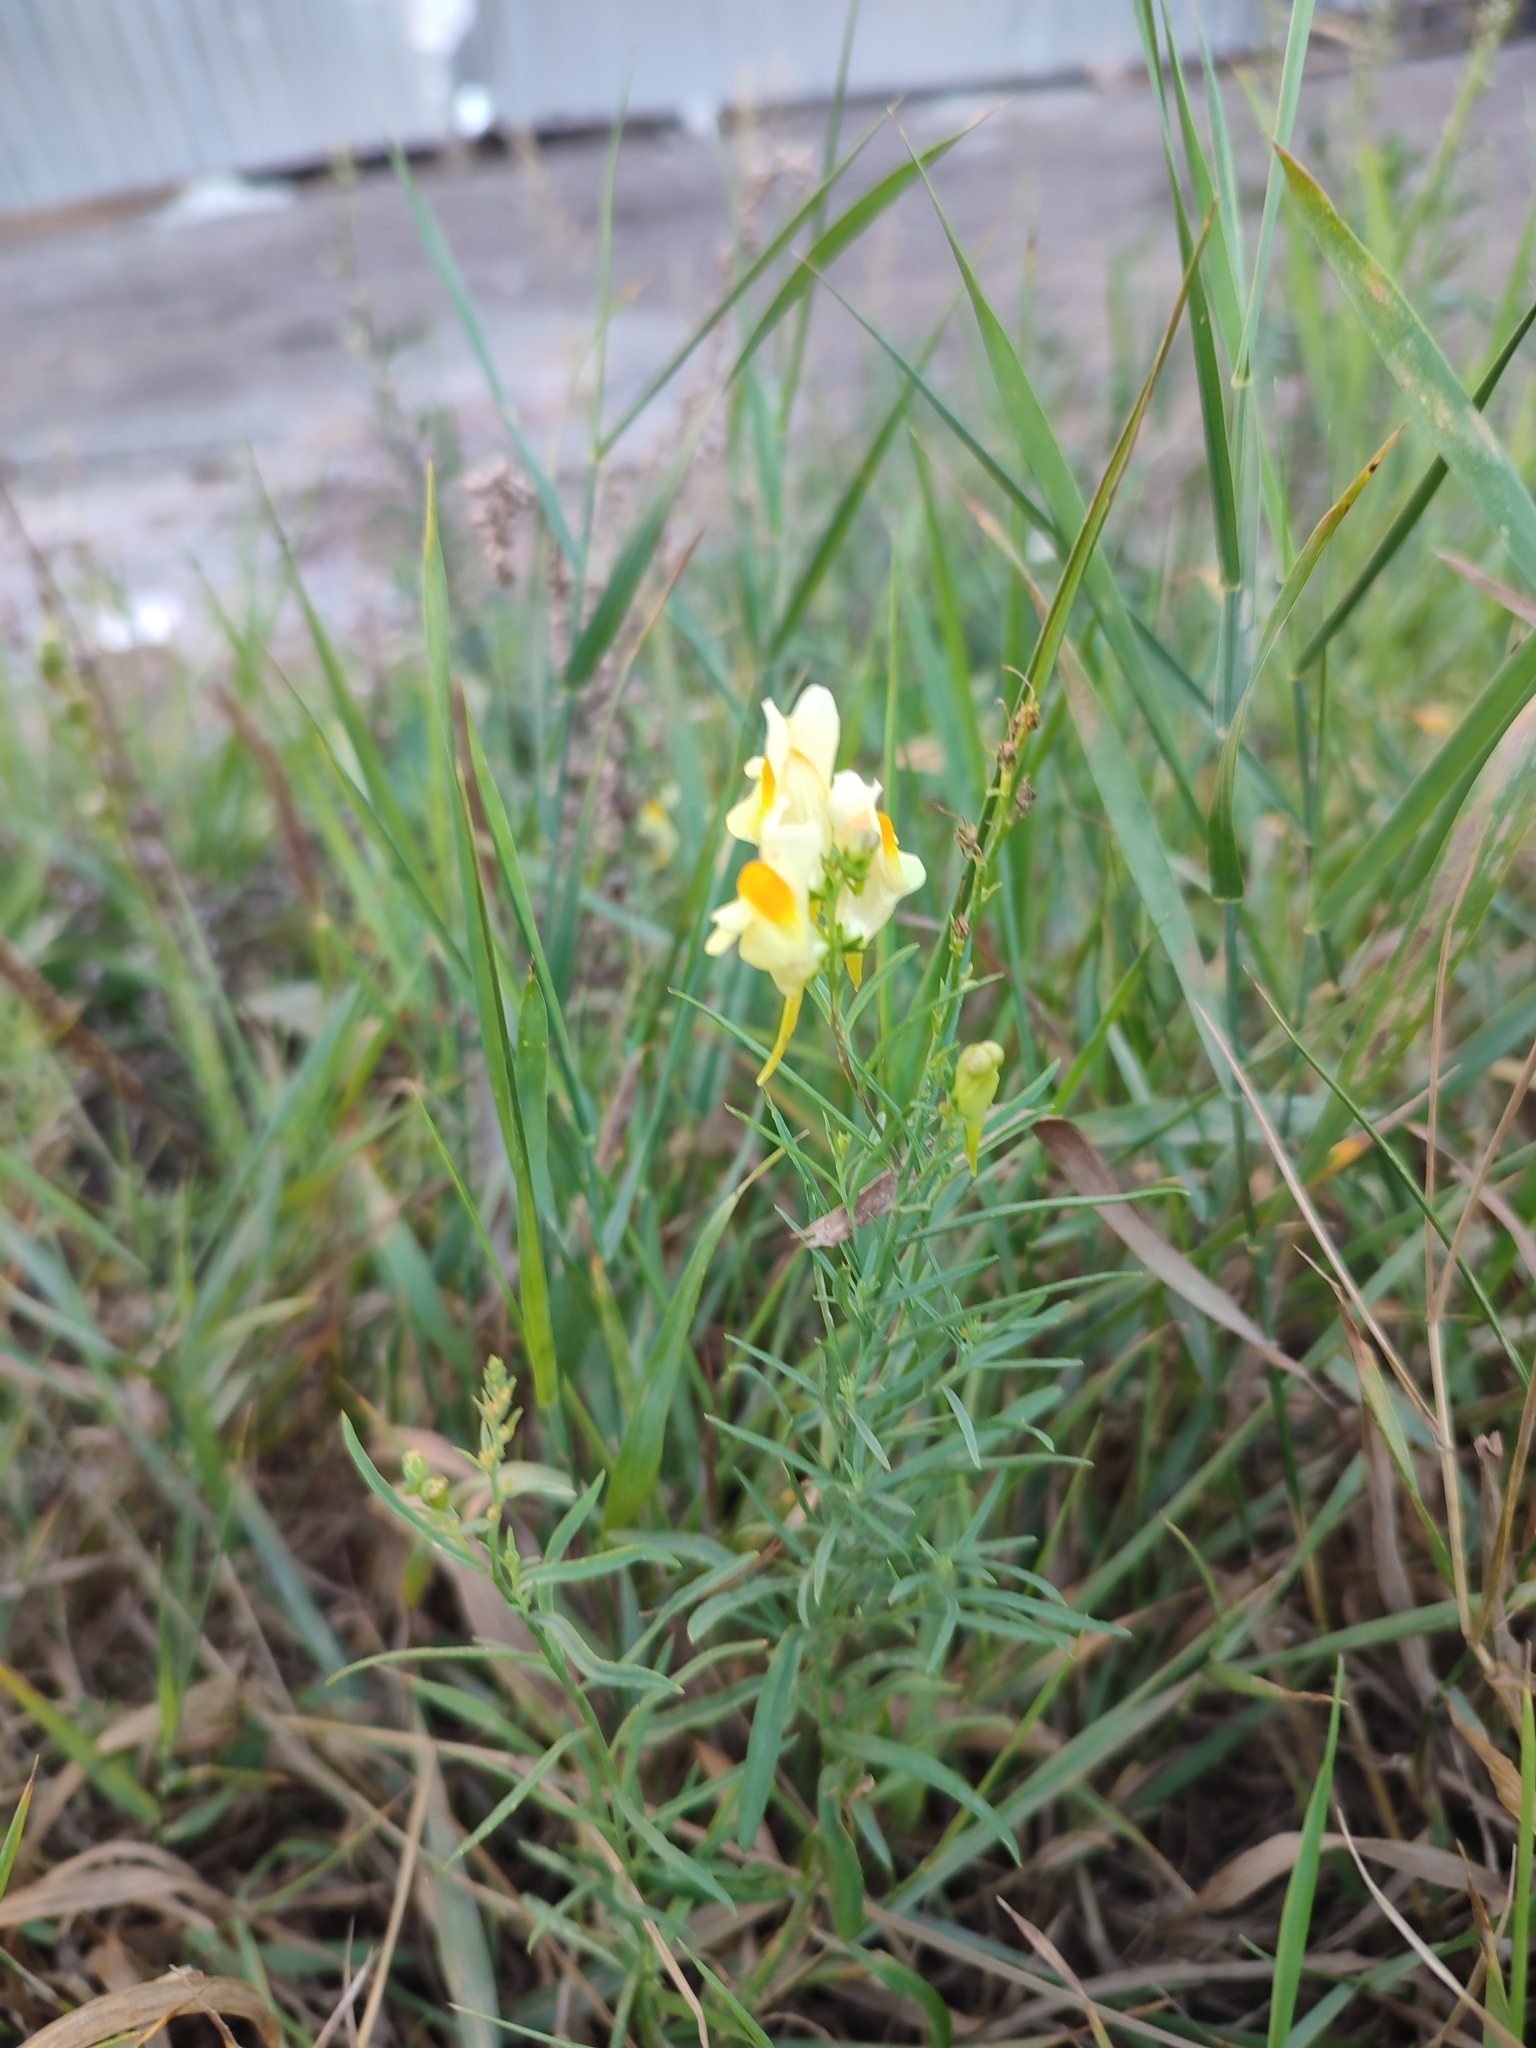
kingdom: Plantae
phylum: Tracheophyta
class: Magnoliopsida
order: Lamiales
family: Plantaginaceae
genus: Linaria
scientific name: Linaria vulgaris
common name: Butter and eggs
